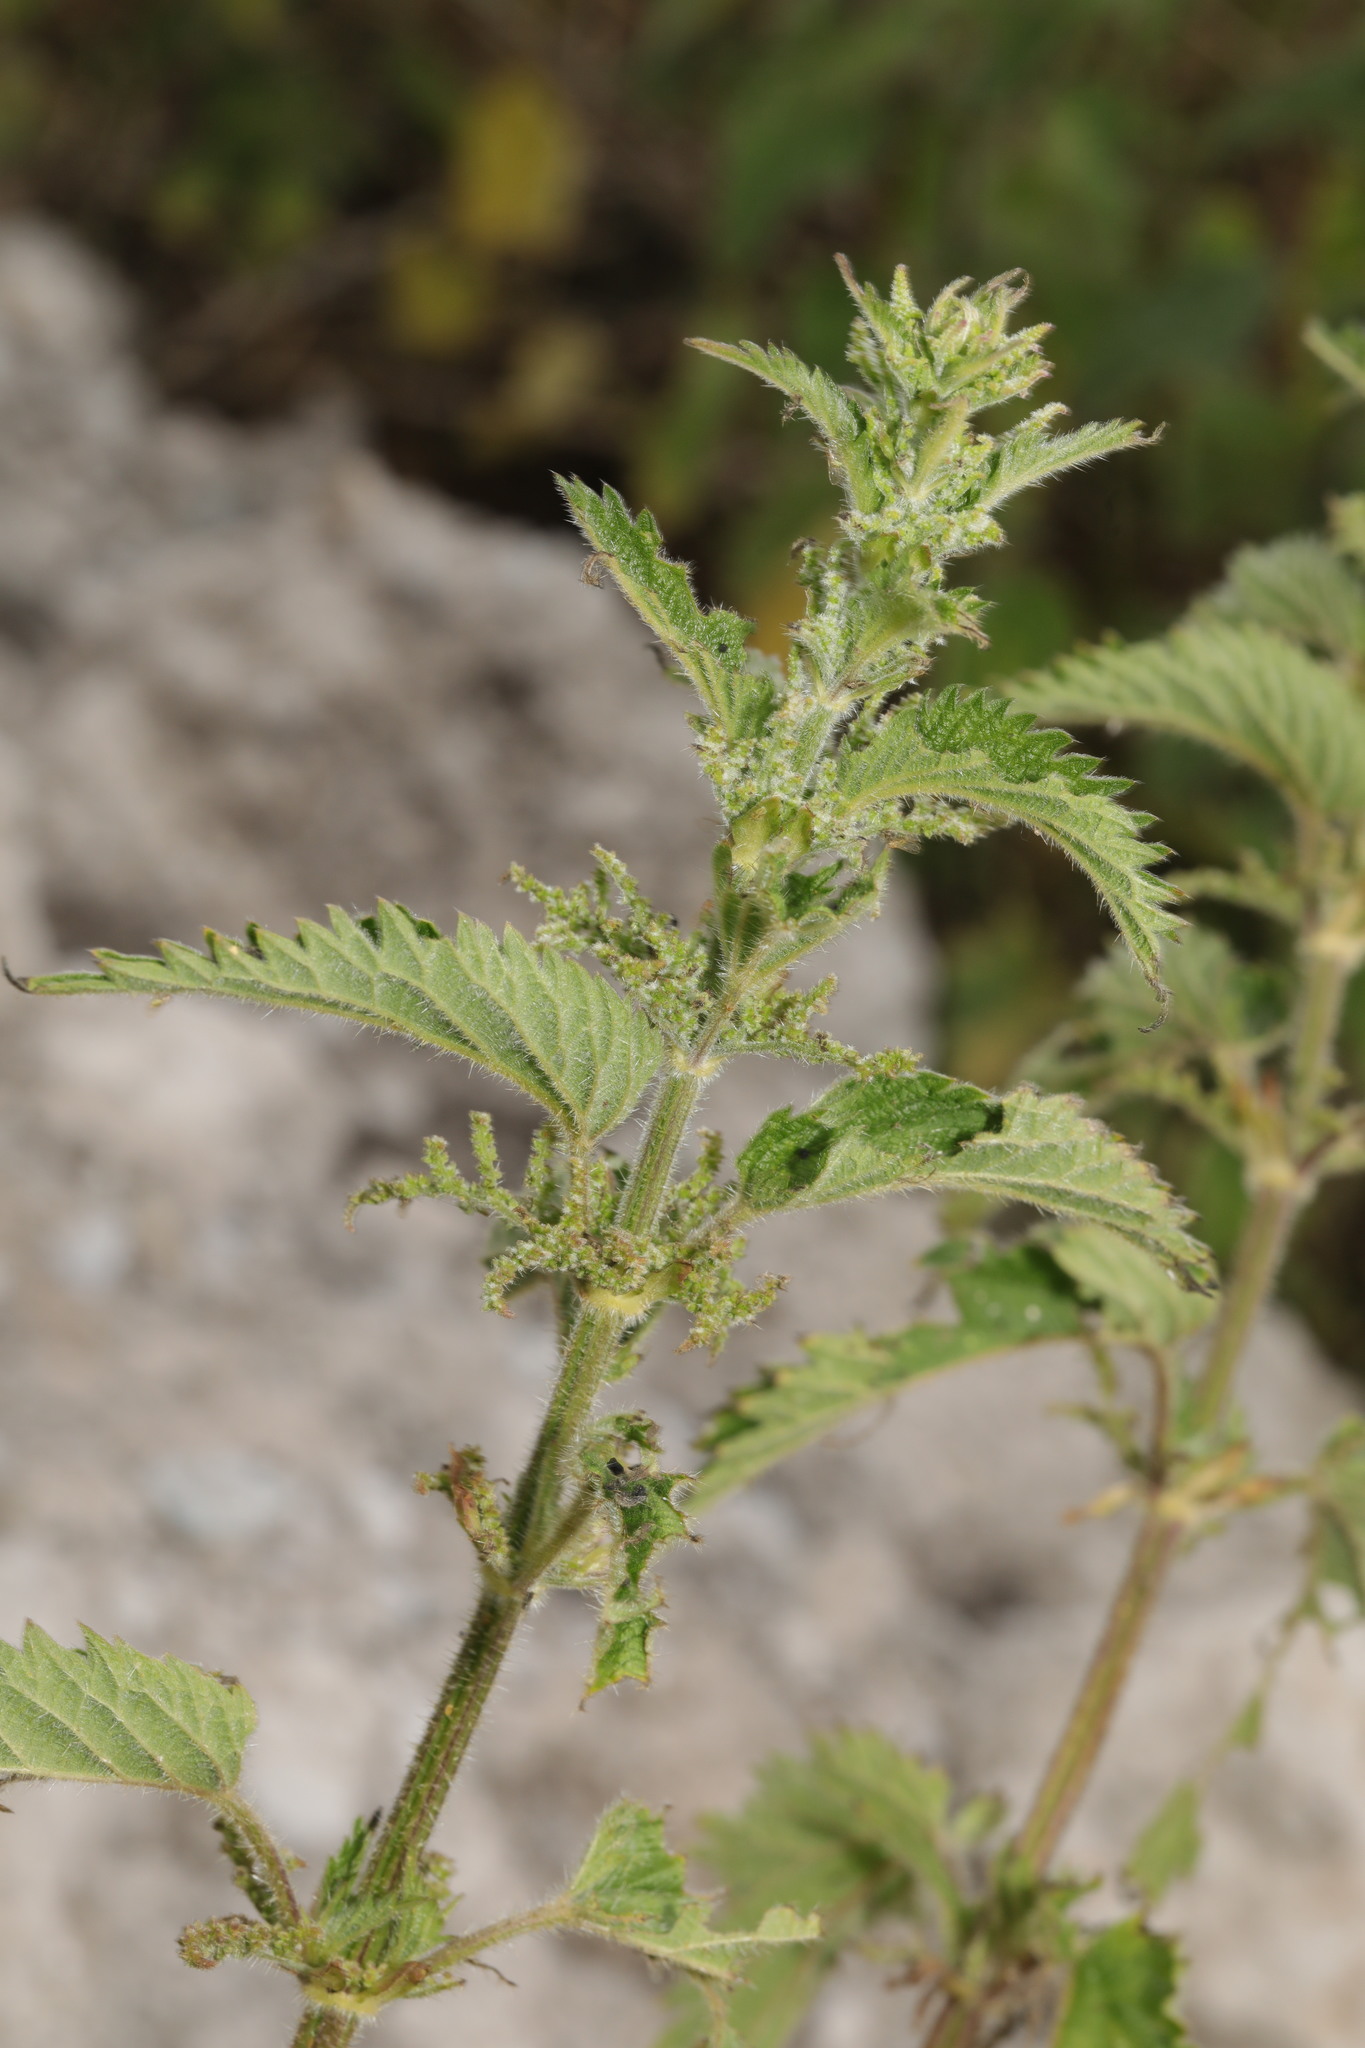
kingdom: Plantae
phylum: Tracheophyta
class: Magnoliopsida
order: Rosales
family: Urticaceae
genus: Urtica
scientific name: Urtica dioica
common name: Common nettle
